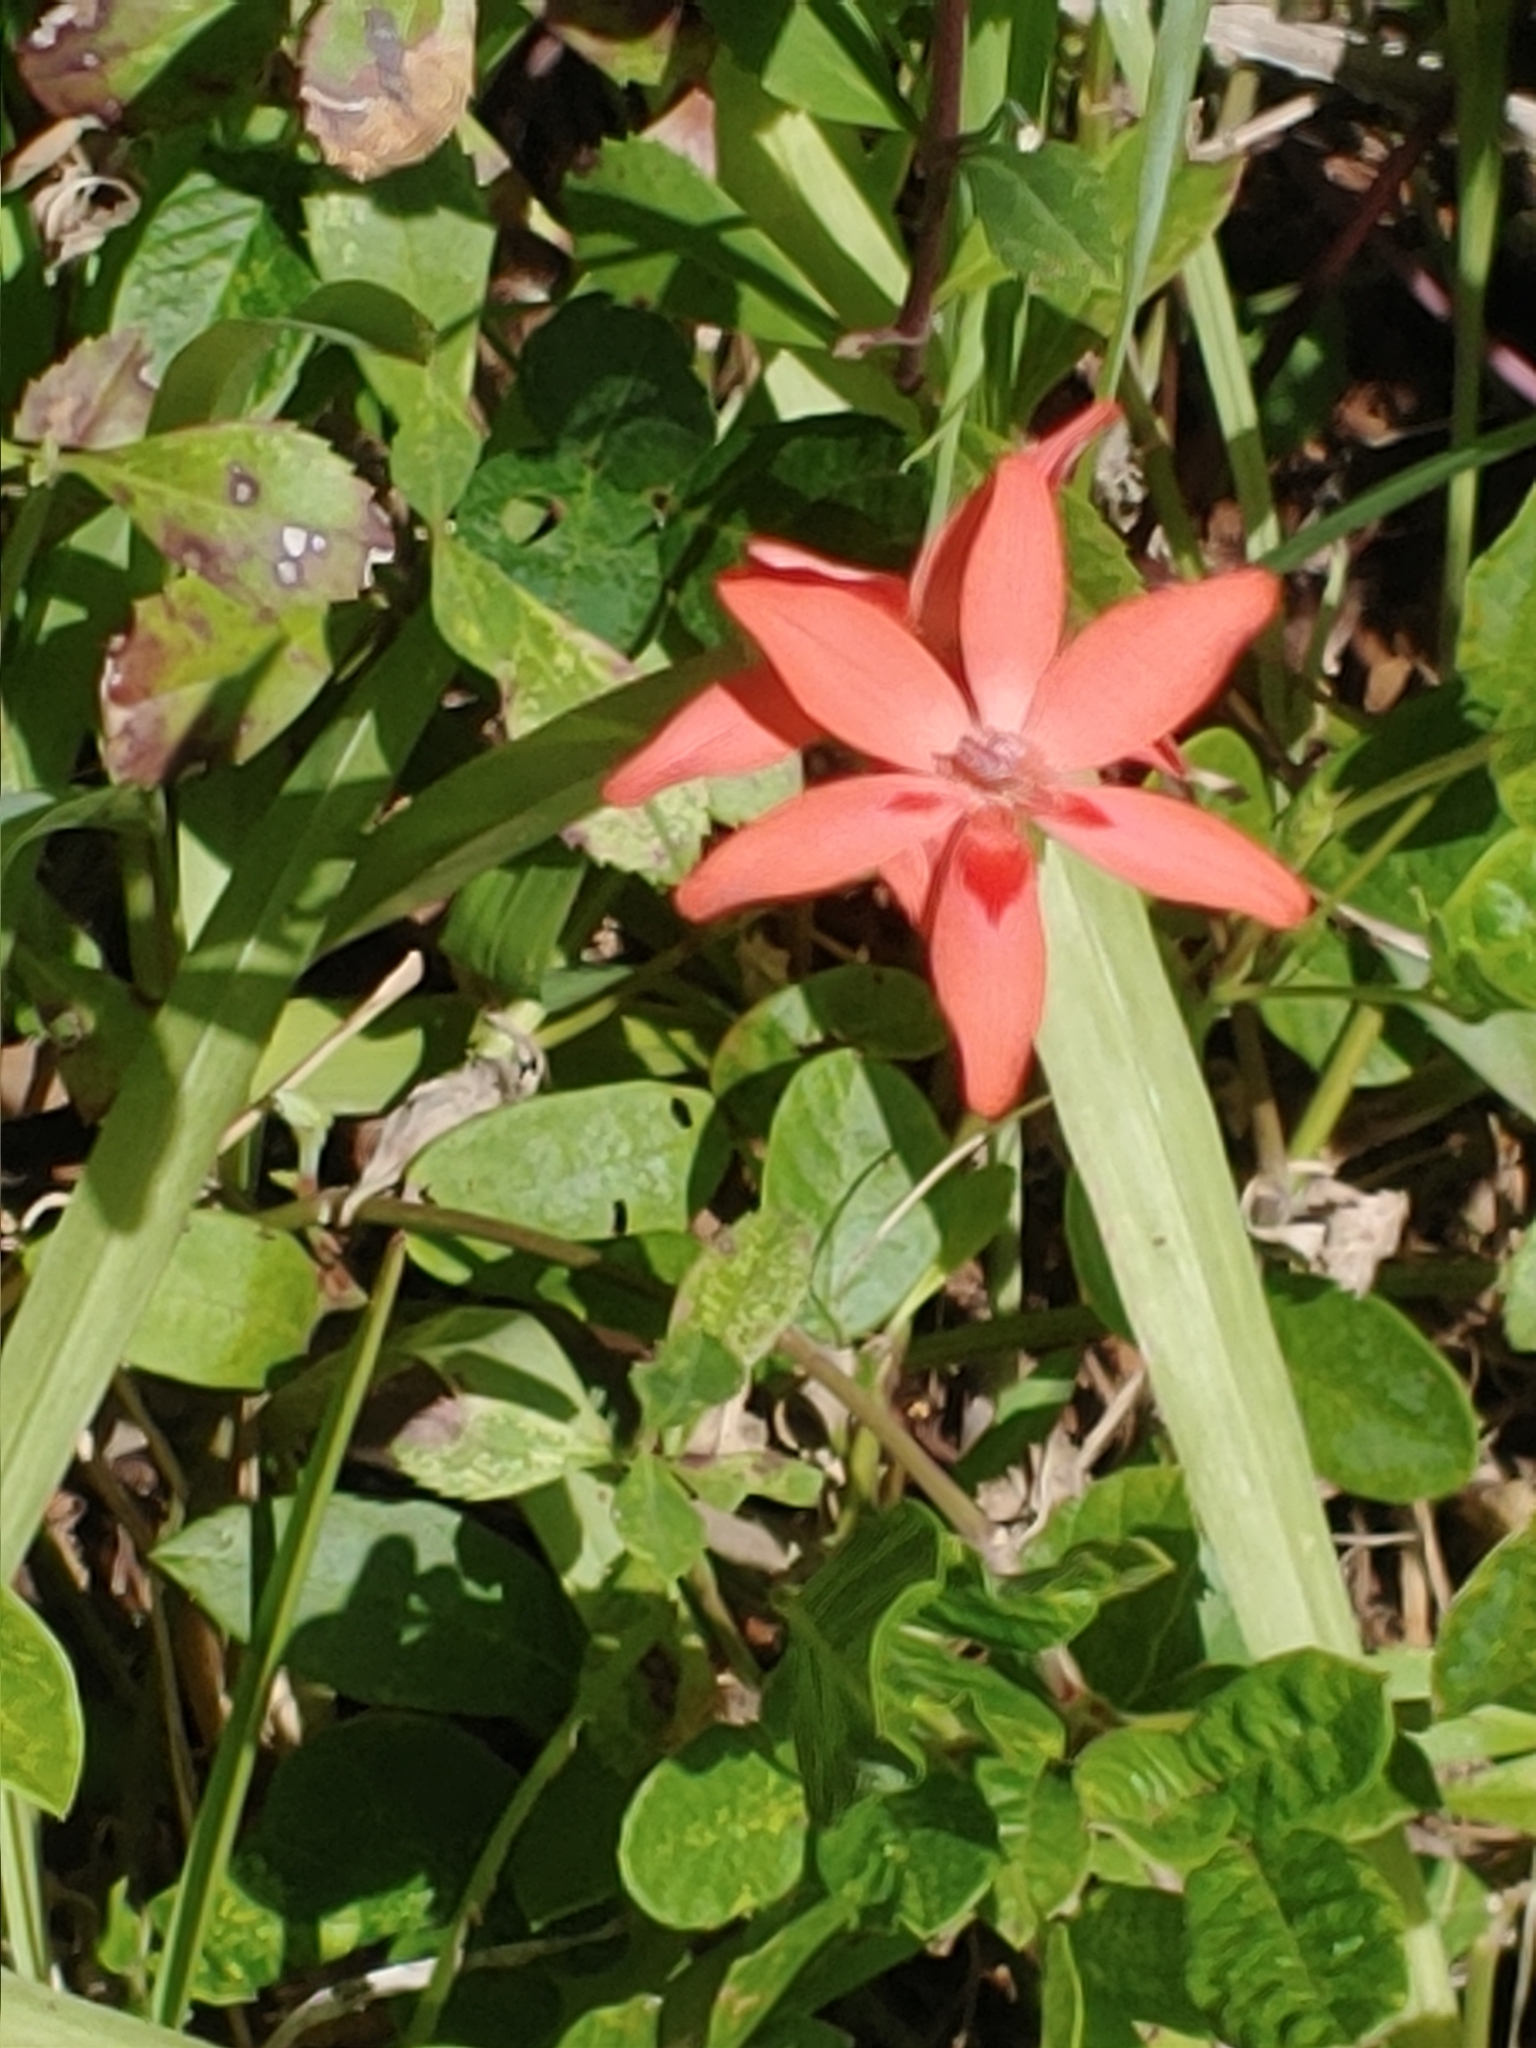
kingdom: Plantae
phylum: Tracheophyta
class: Liliopsida
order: Asparagales
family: Iridaceae
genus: Freesia
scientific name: Freesia laxa
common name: False freesia
